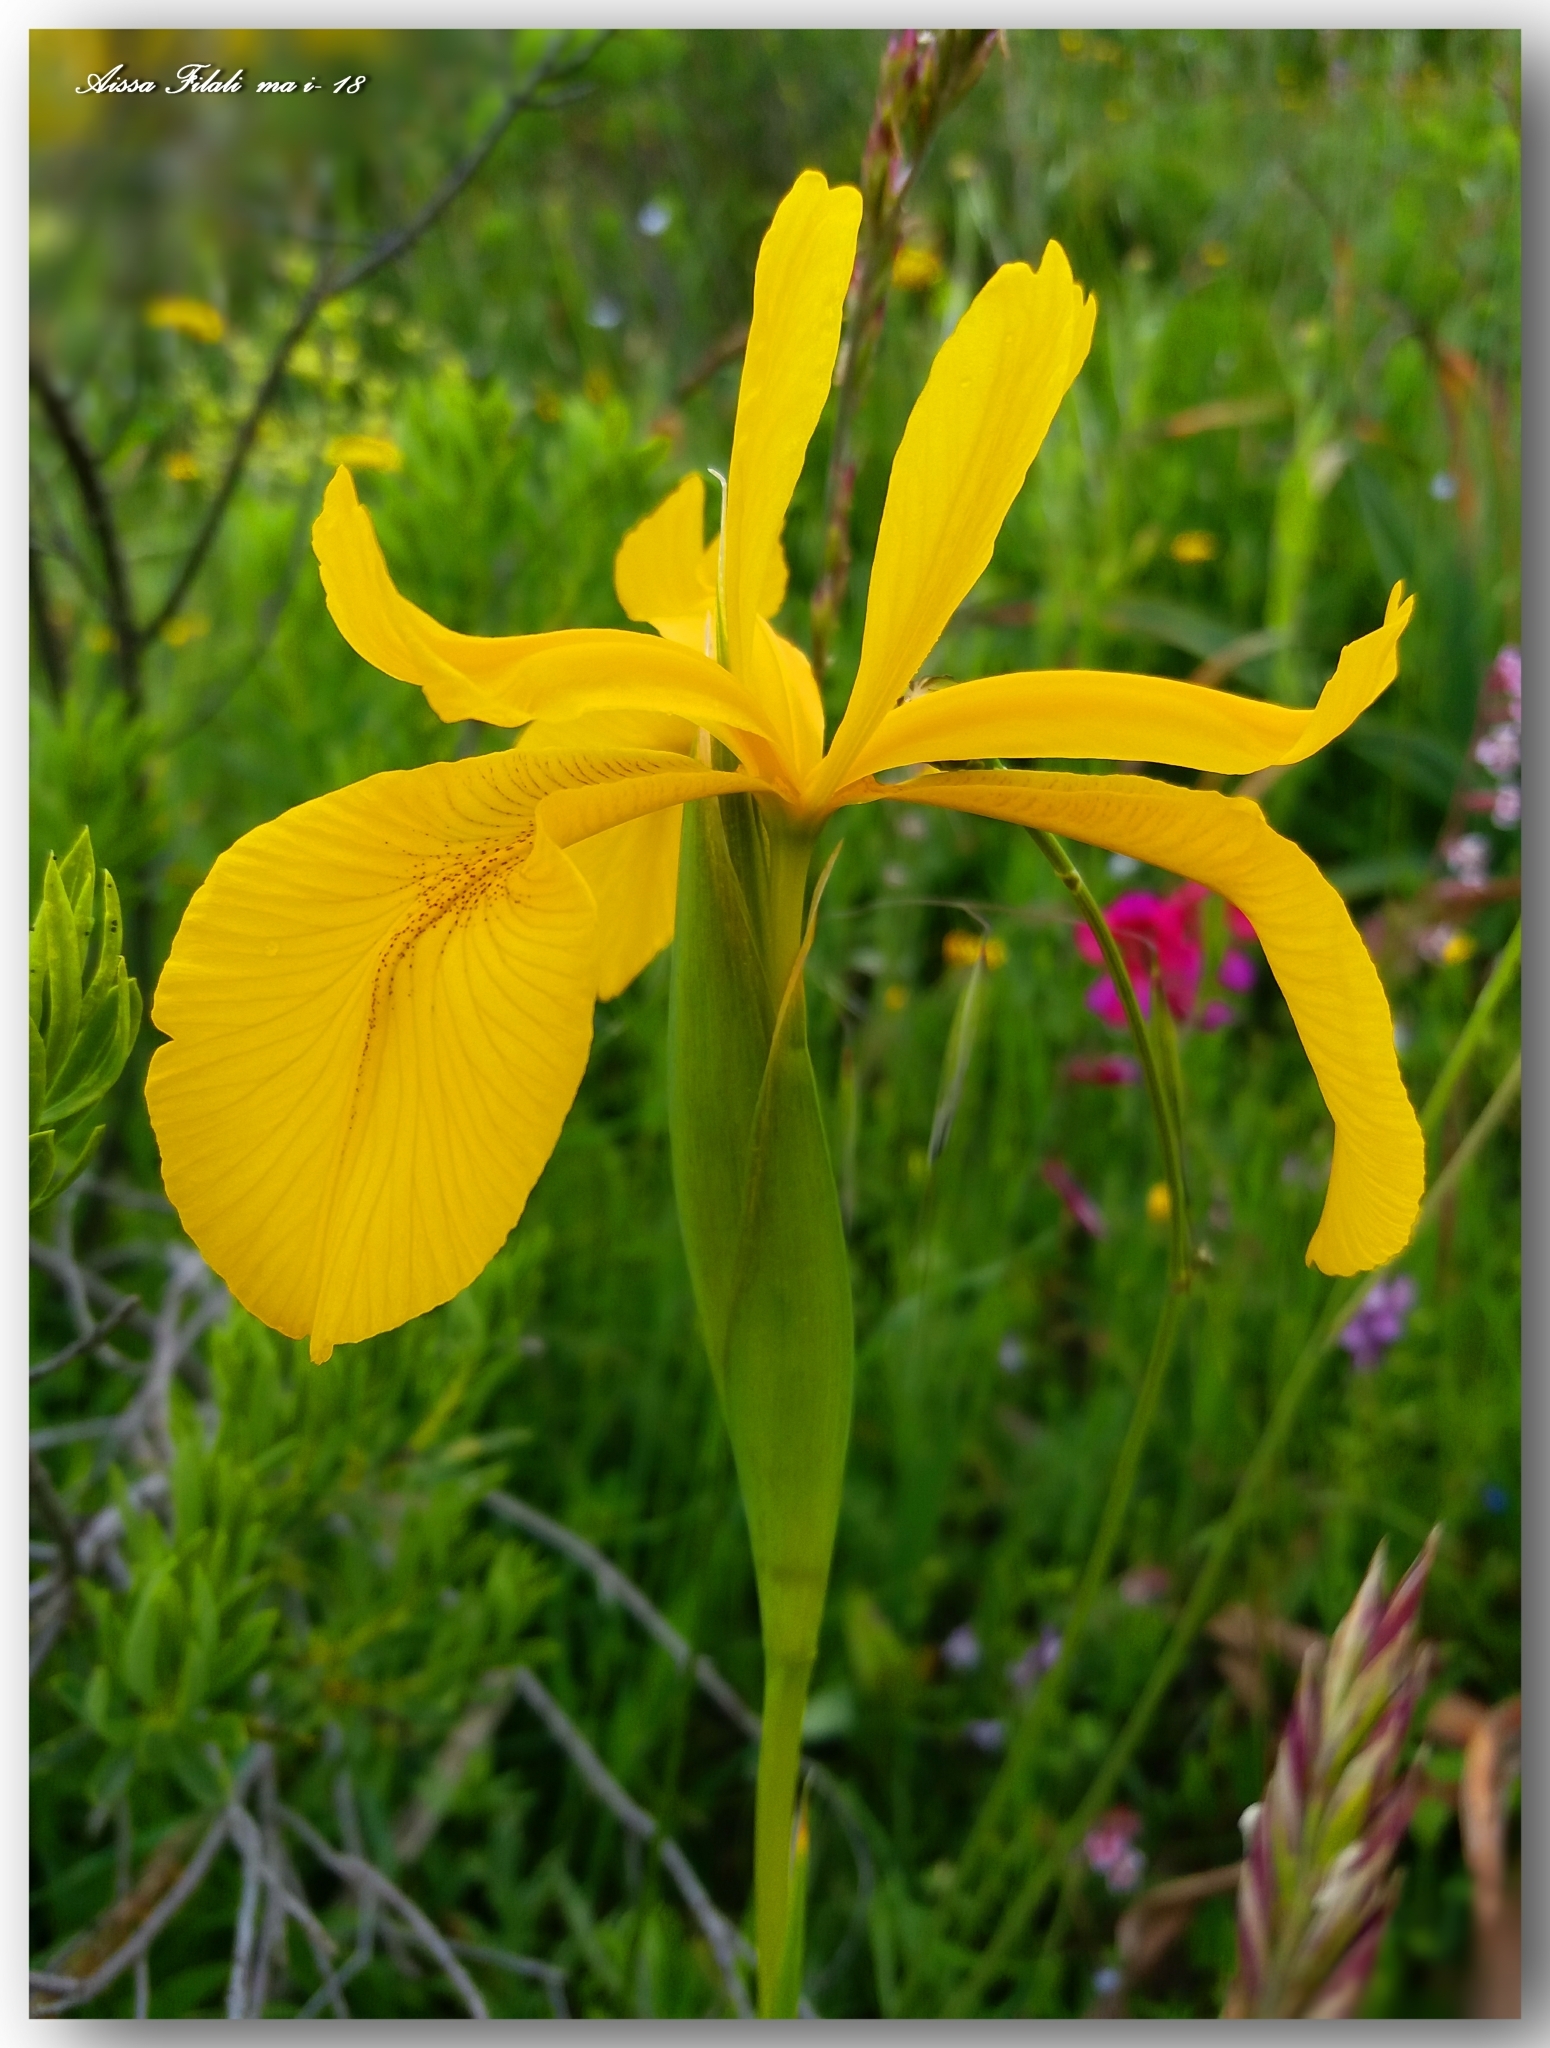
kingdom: Plantae
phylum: Tracheophyta
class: Liliopsida
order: Asparagales
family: Iridaceae
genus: Iris
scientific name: Iris juncea
